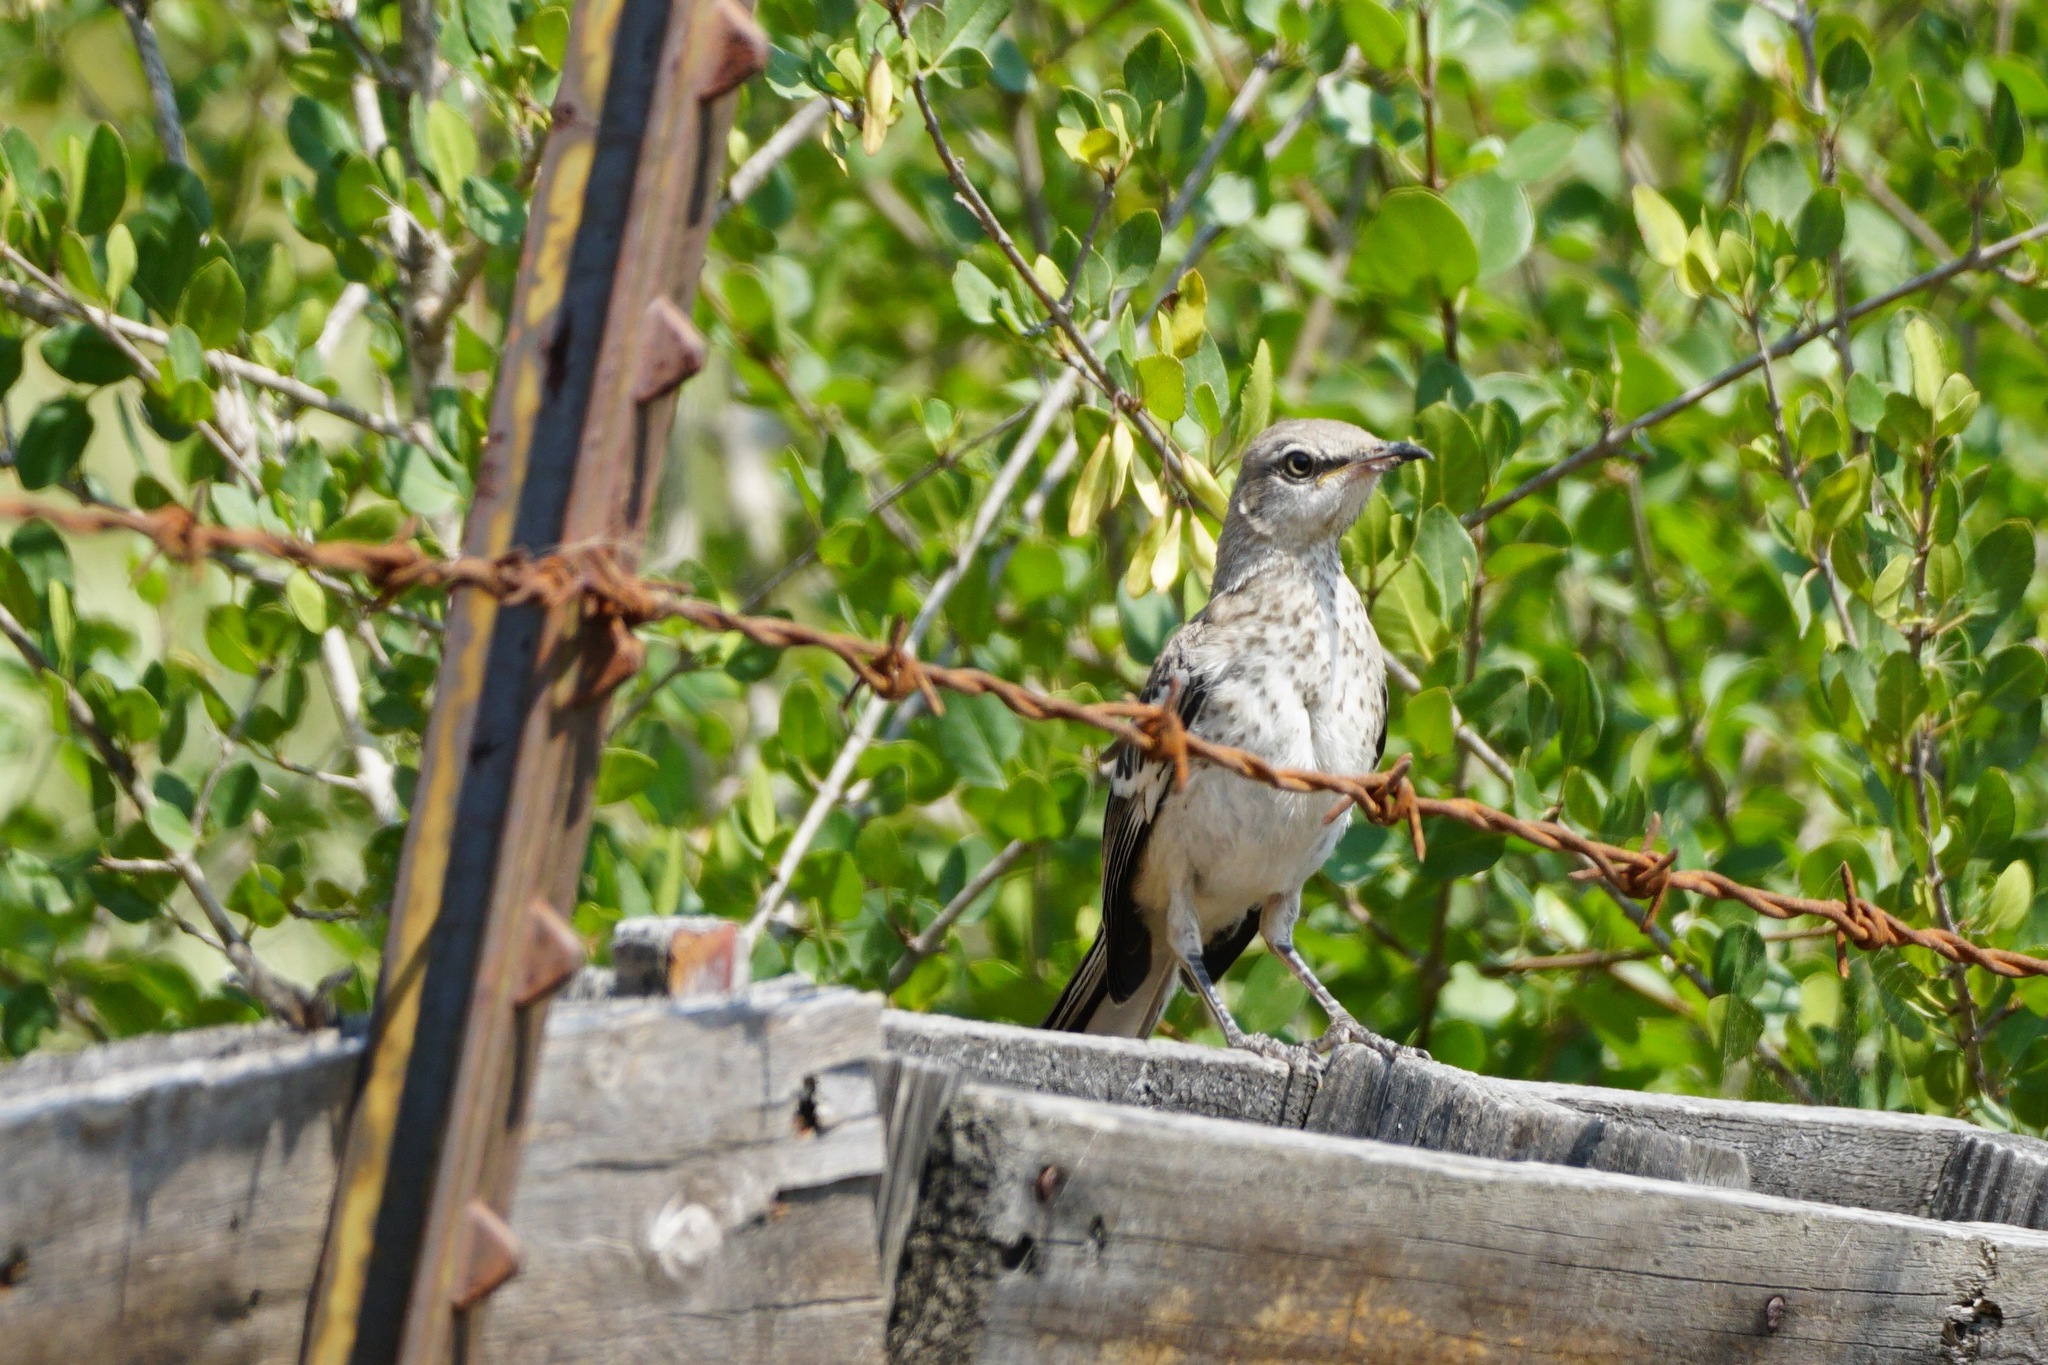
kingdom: Animalia
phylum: Chordata
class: Aves
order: Passeriformes
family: Mimidae
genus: Mimus
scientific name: Mimus polyglottos
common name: Northern mockingbird
